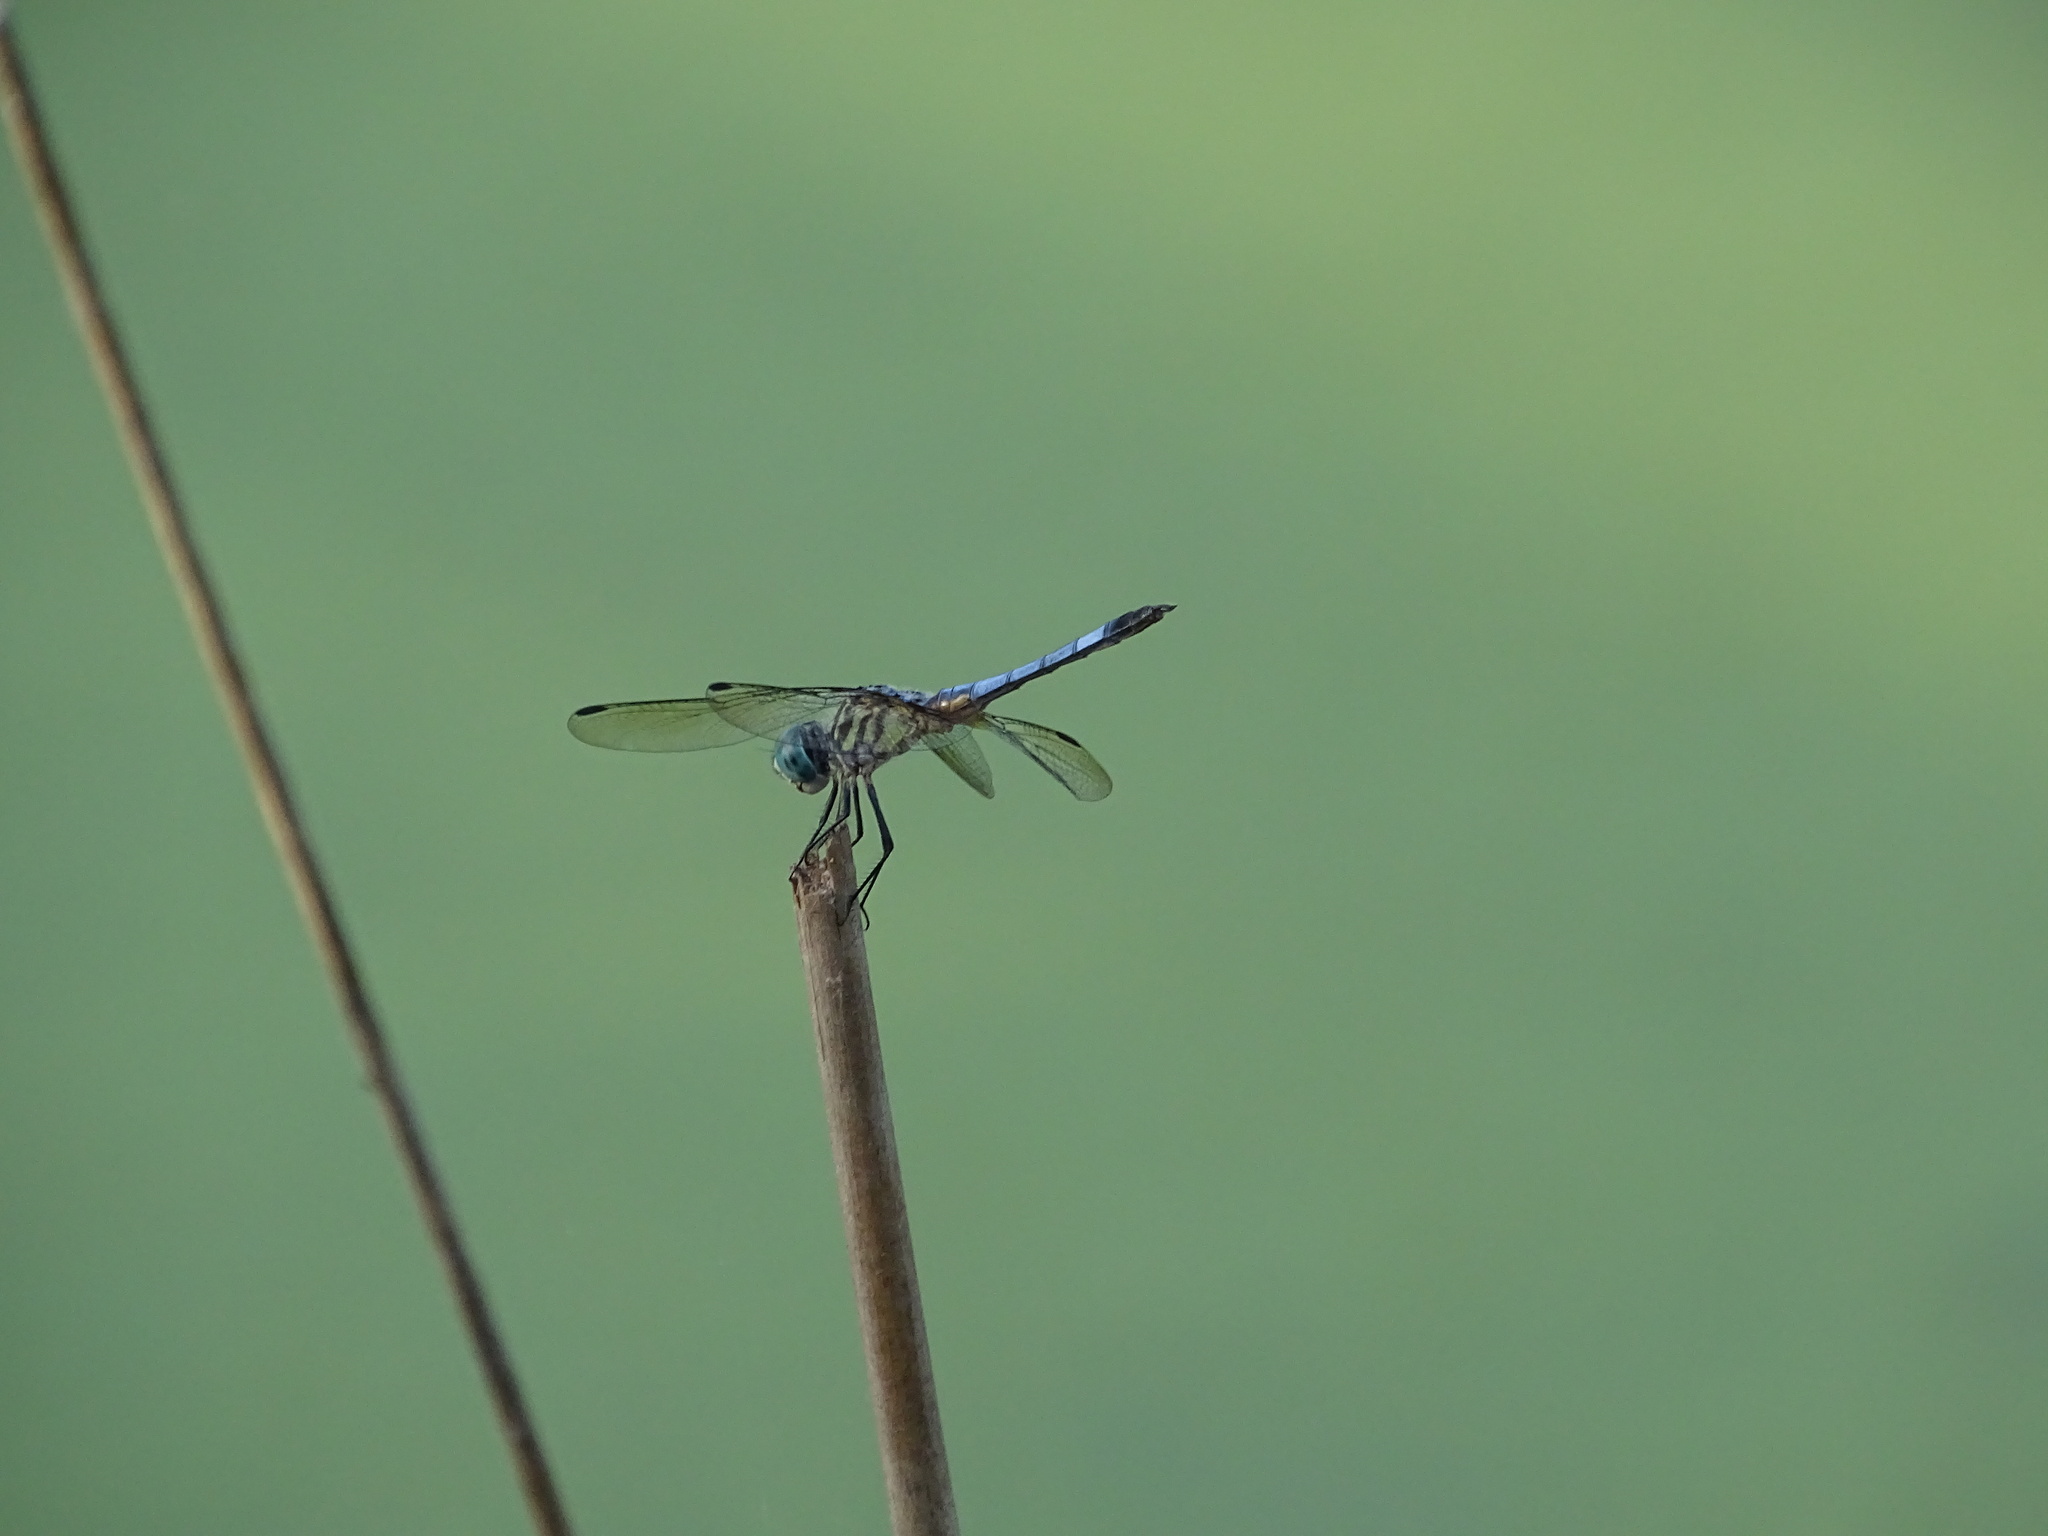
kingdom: Animalia
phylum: Arthropoda
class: Insecta
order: Odonata
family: Libellulidae
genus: Pachydiplax
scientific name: Pachydiplax longipennis
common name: Blue dasher
